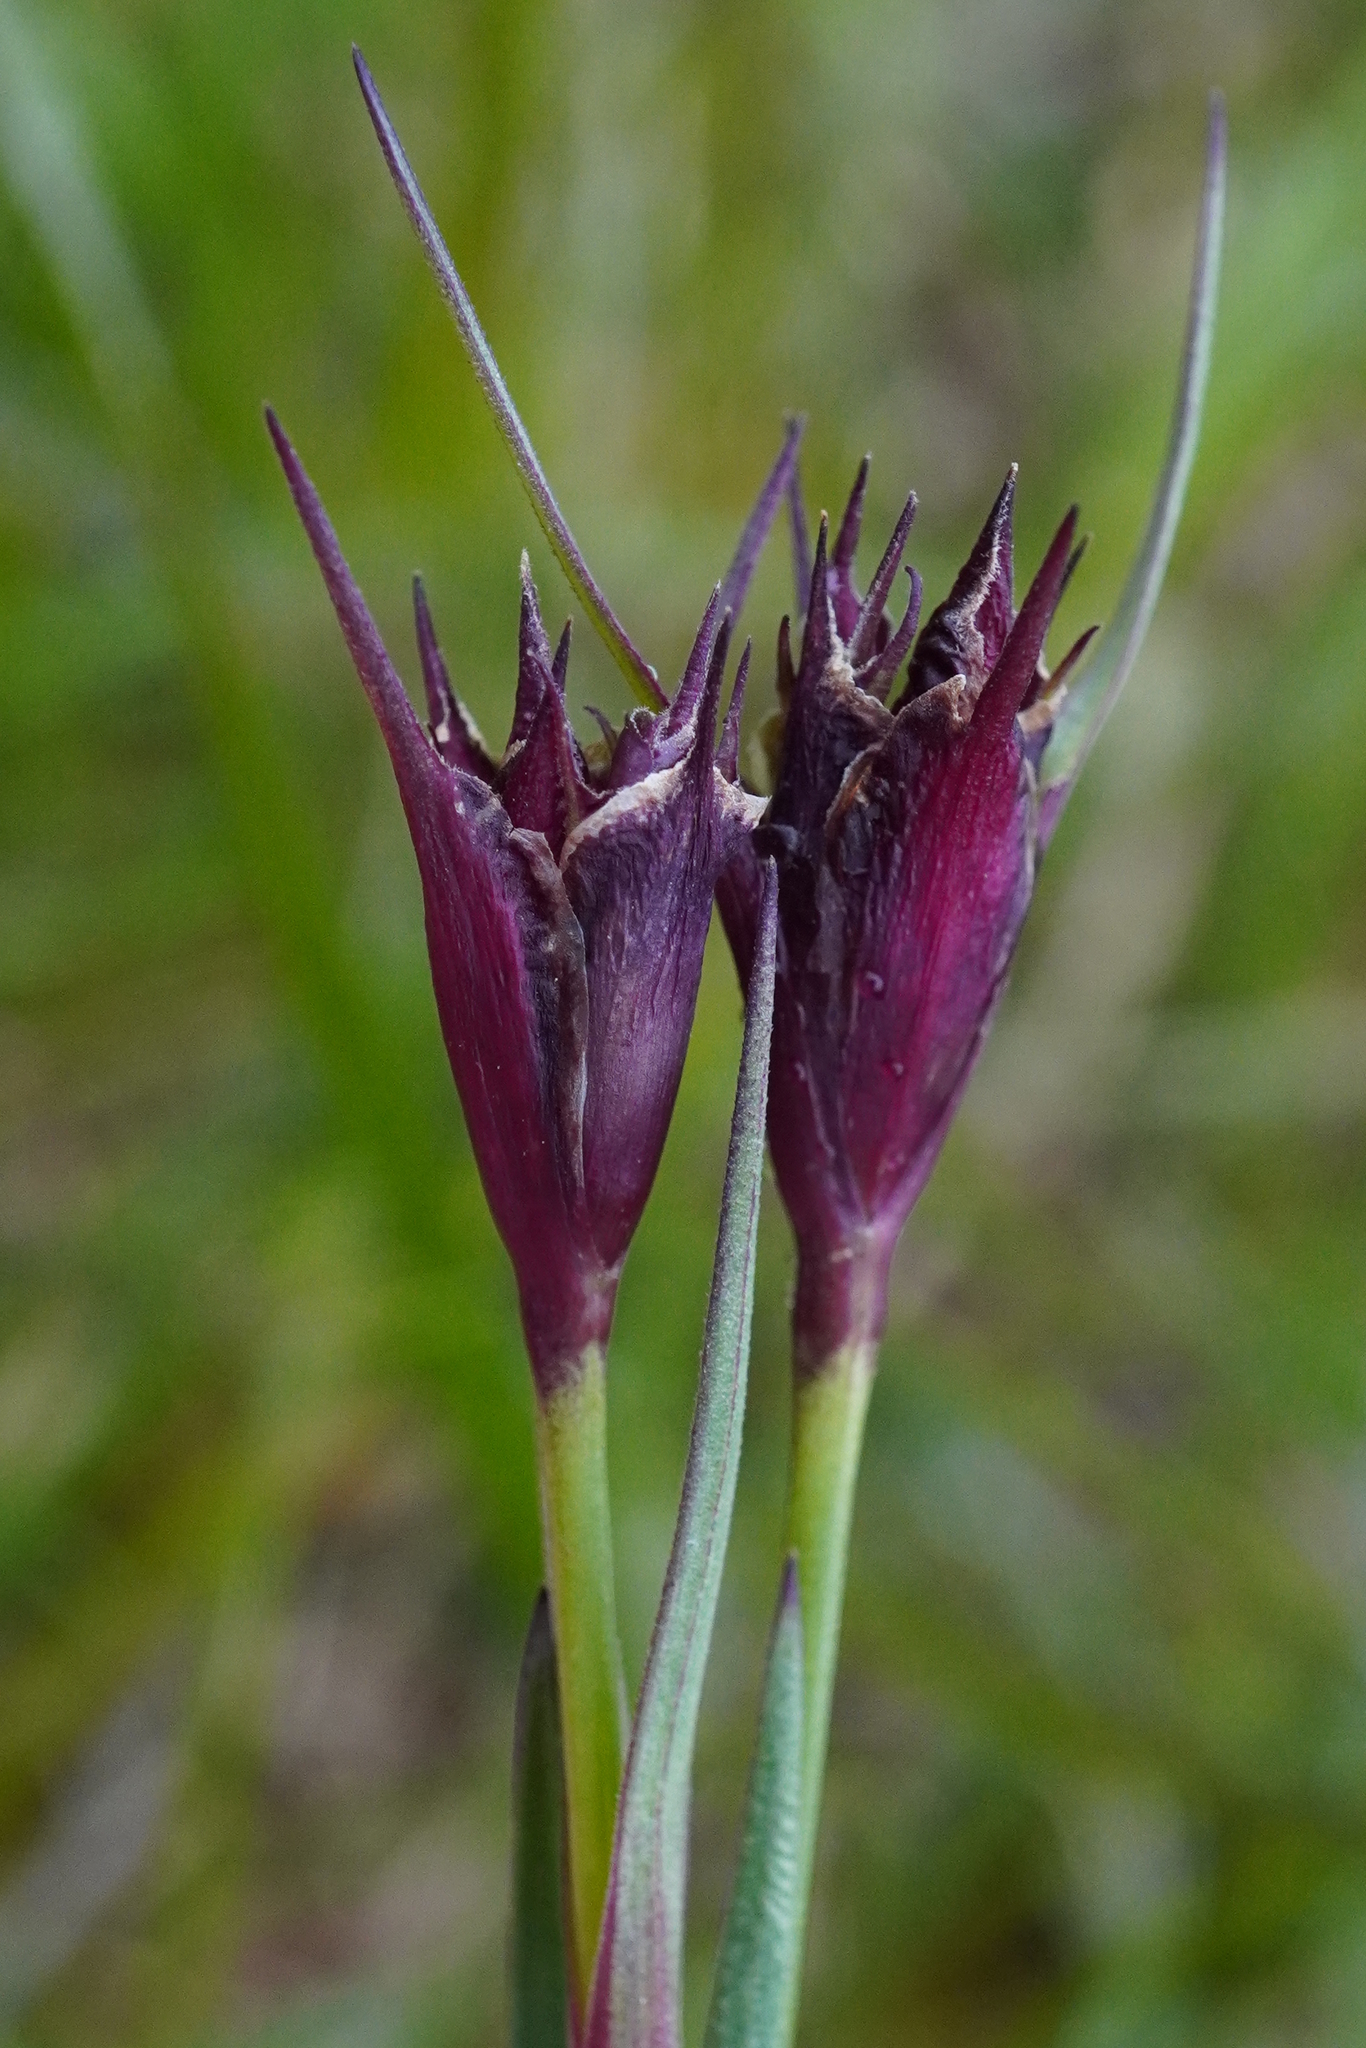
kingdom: Plantae
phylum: Tracheophyta
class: Magnoliopsida
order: Caryophyllales
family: Caryophyllaceae
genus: Dianthus
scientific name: Dianthus carthusianorum
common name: Carthusian pink
